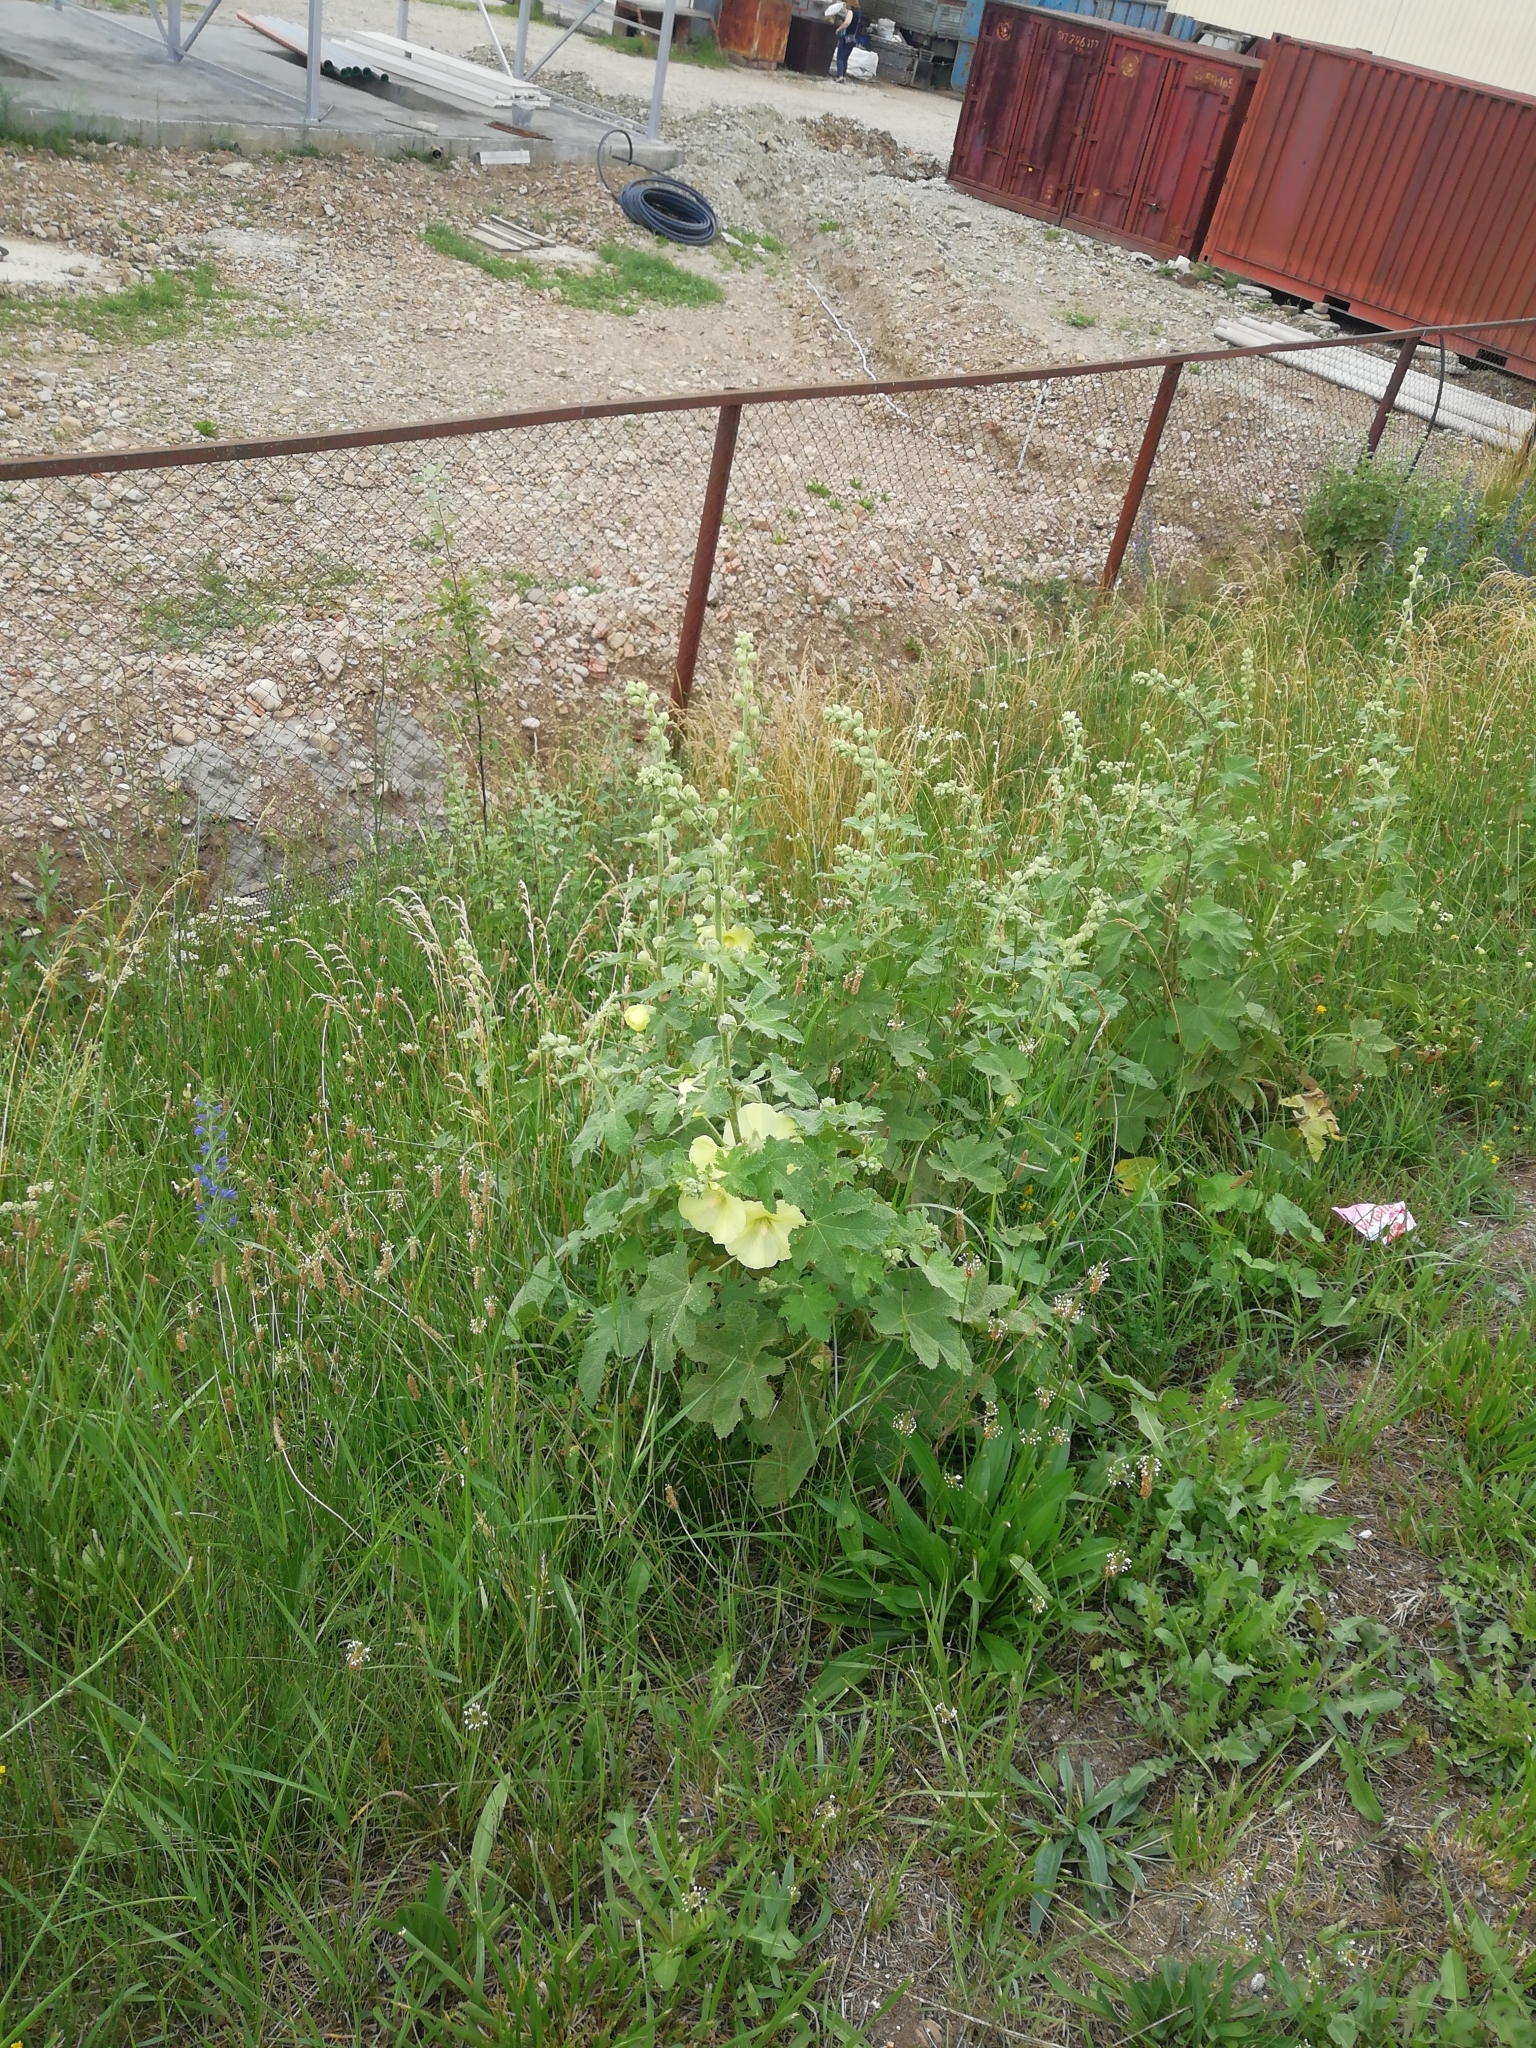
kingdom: Plantae
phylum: Tracheophyta
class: Magnoliopsida
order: Malvales
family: Malvaceae
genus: Alcea
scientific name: Alcea rugosa
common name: Russian hollyhock
